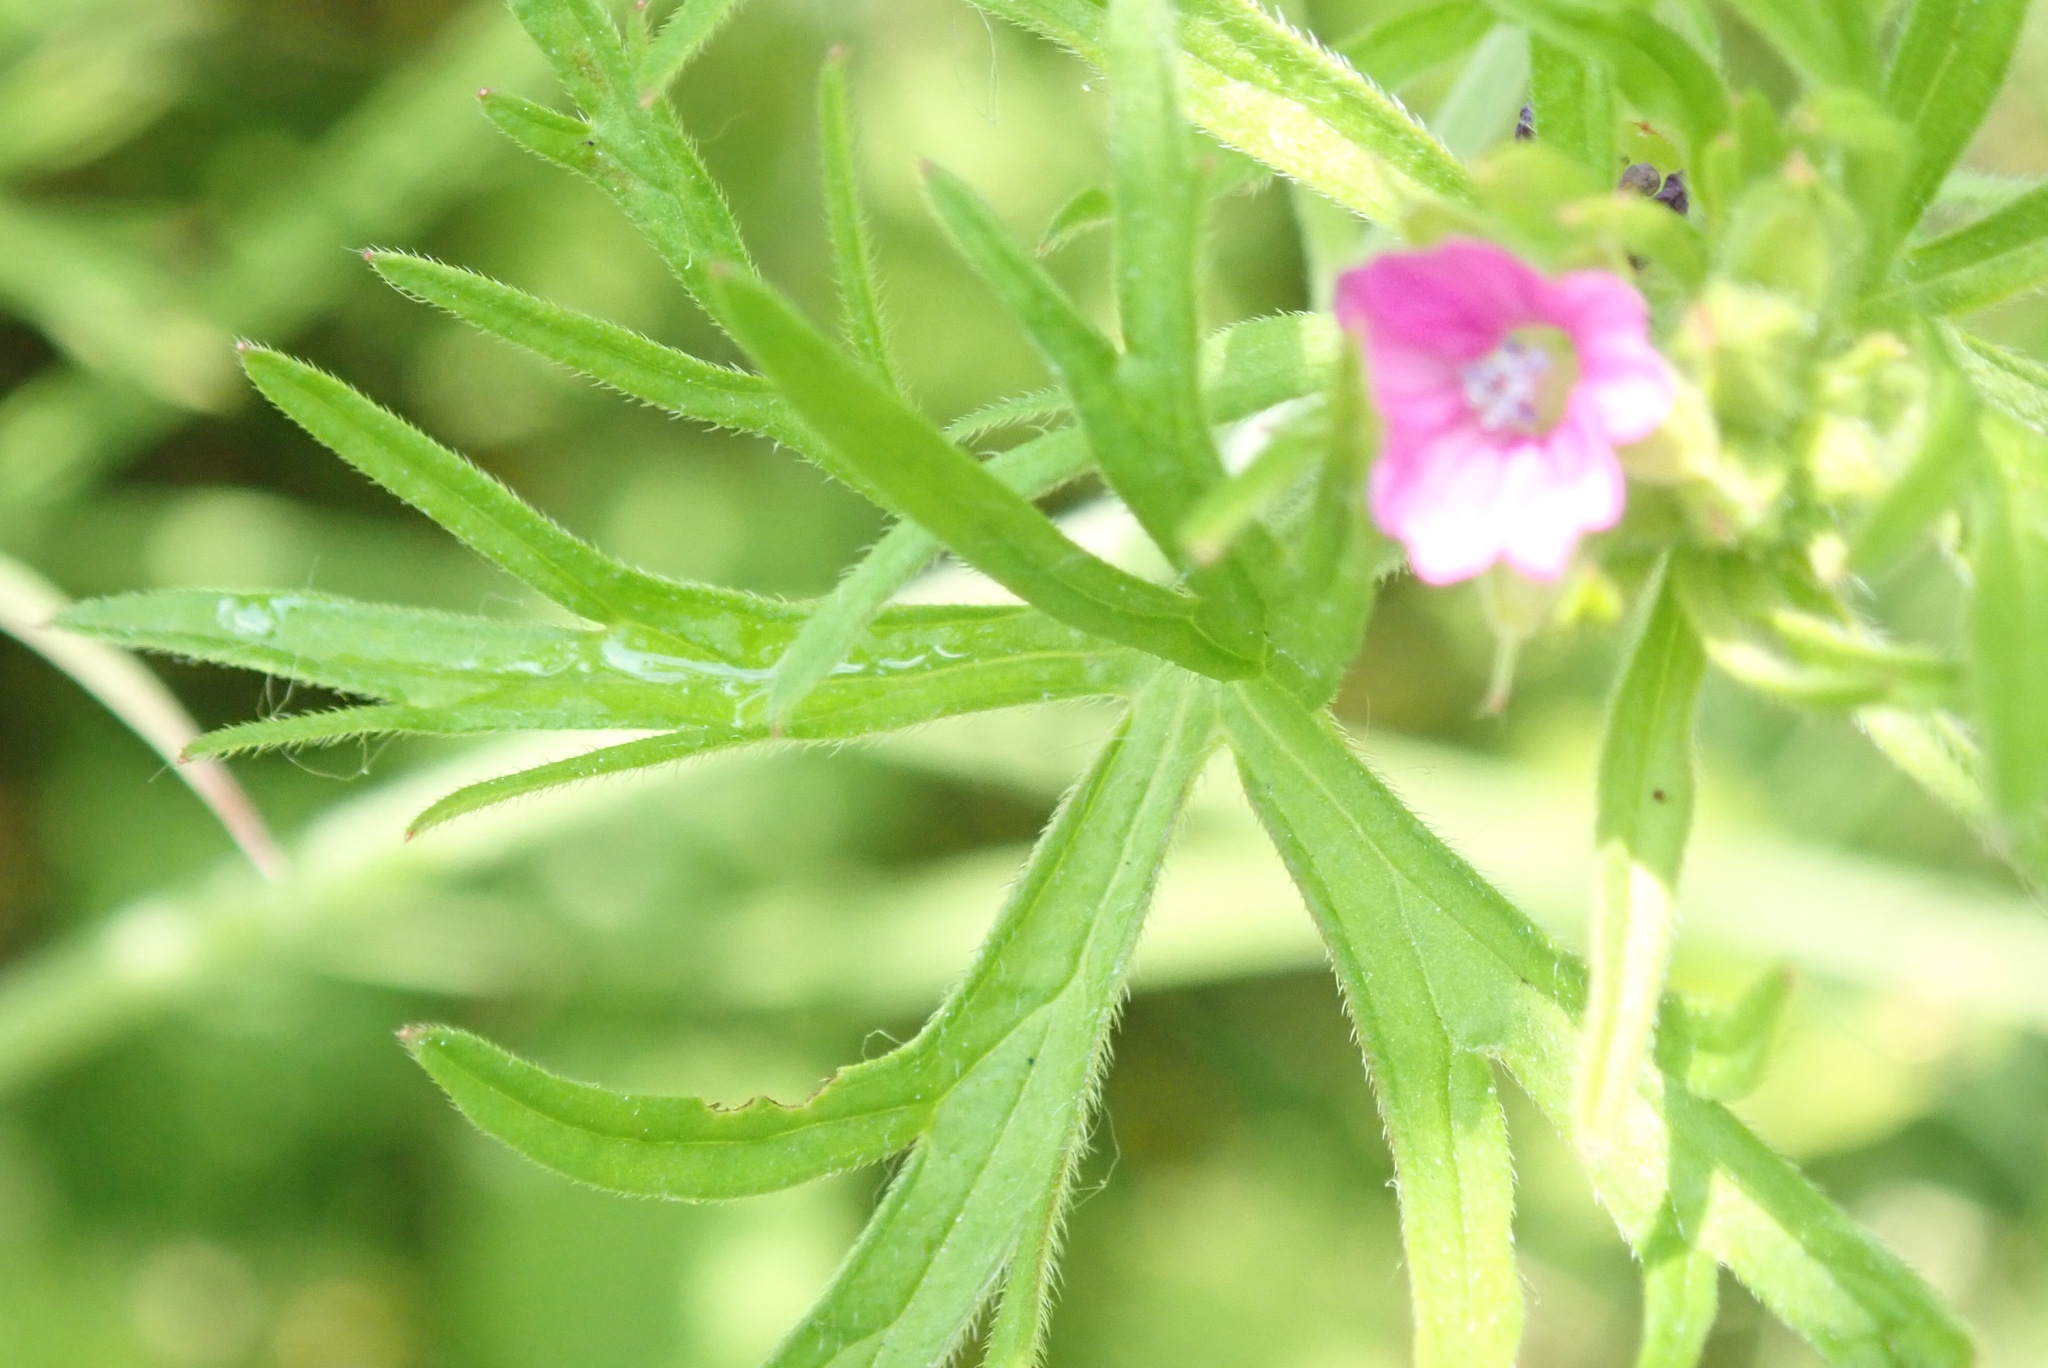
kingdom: Plantae
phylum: Tracheophyta
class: Magnoliopsida
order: Geraniales
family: Geraniaceae
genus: Geranium
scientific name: Geranium dissectum
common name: Cut-leaved crane's-bill
